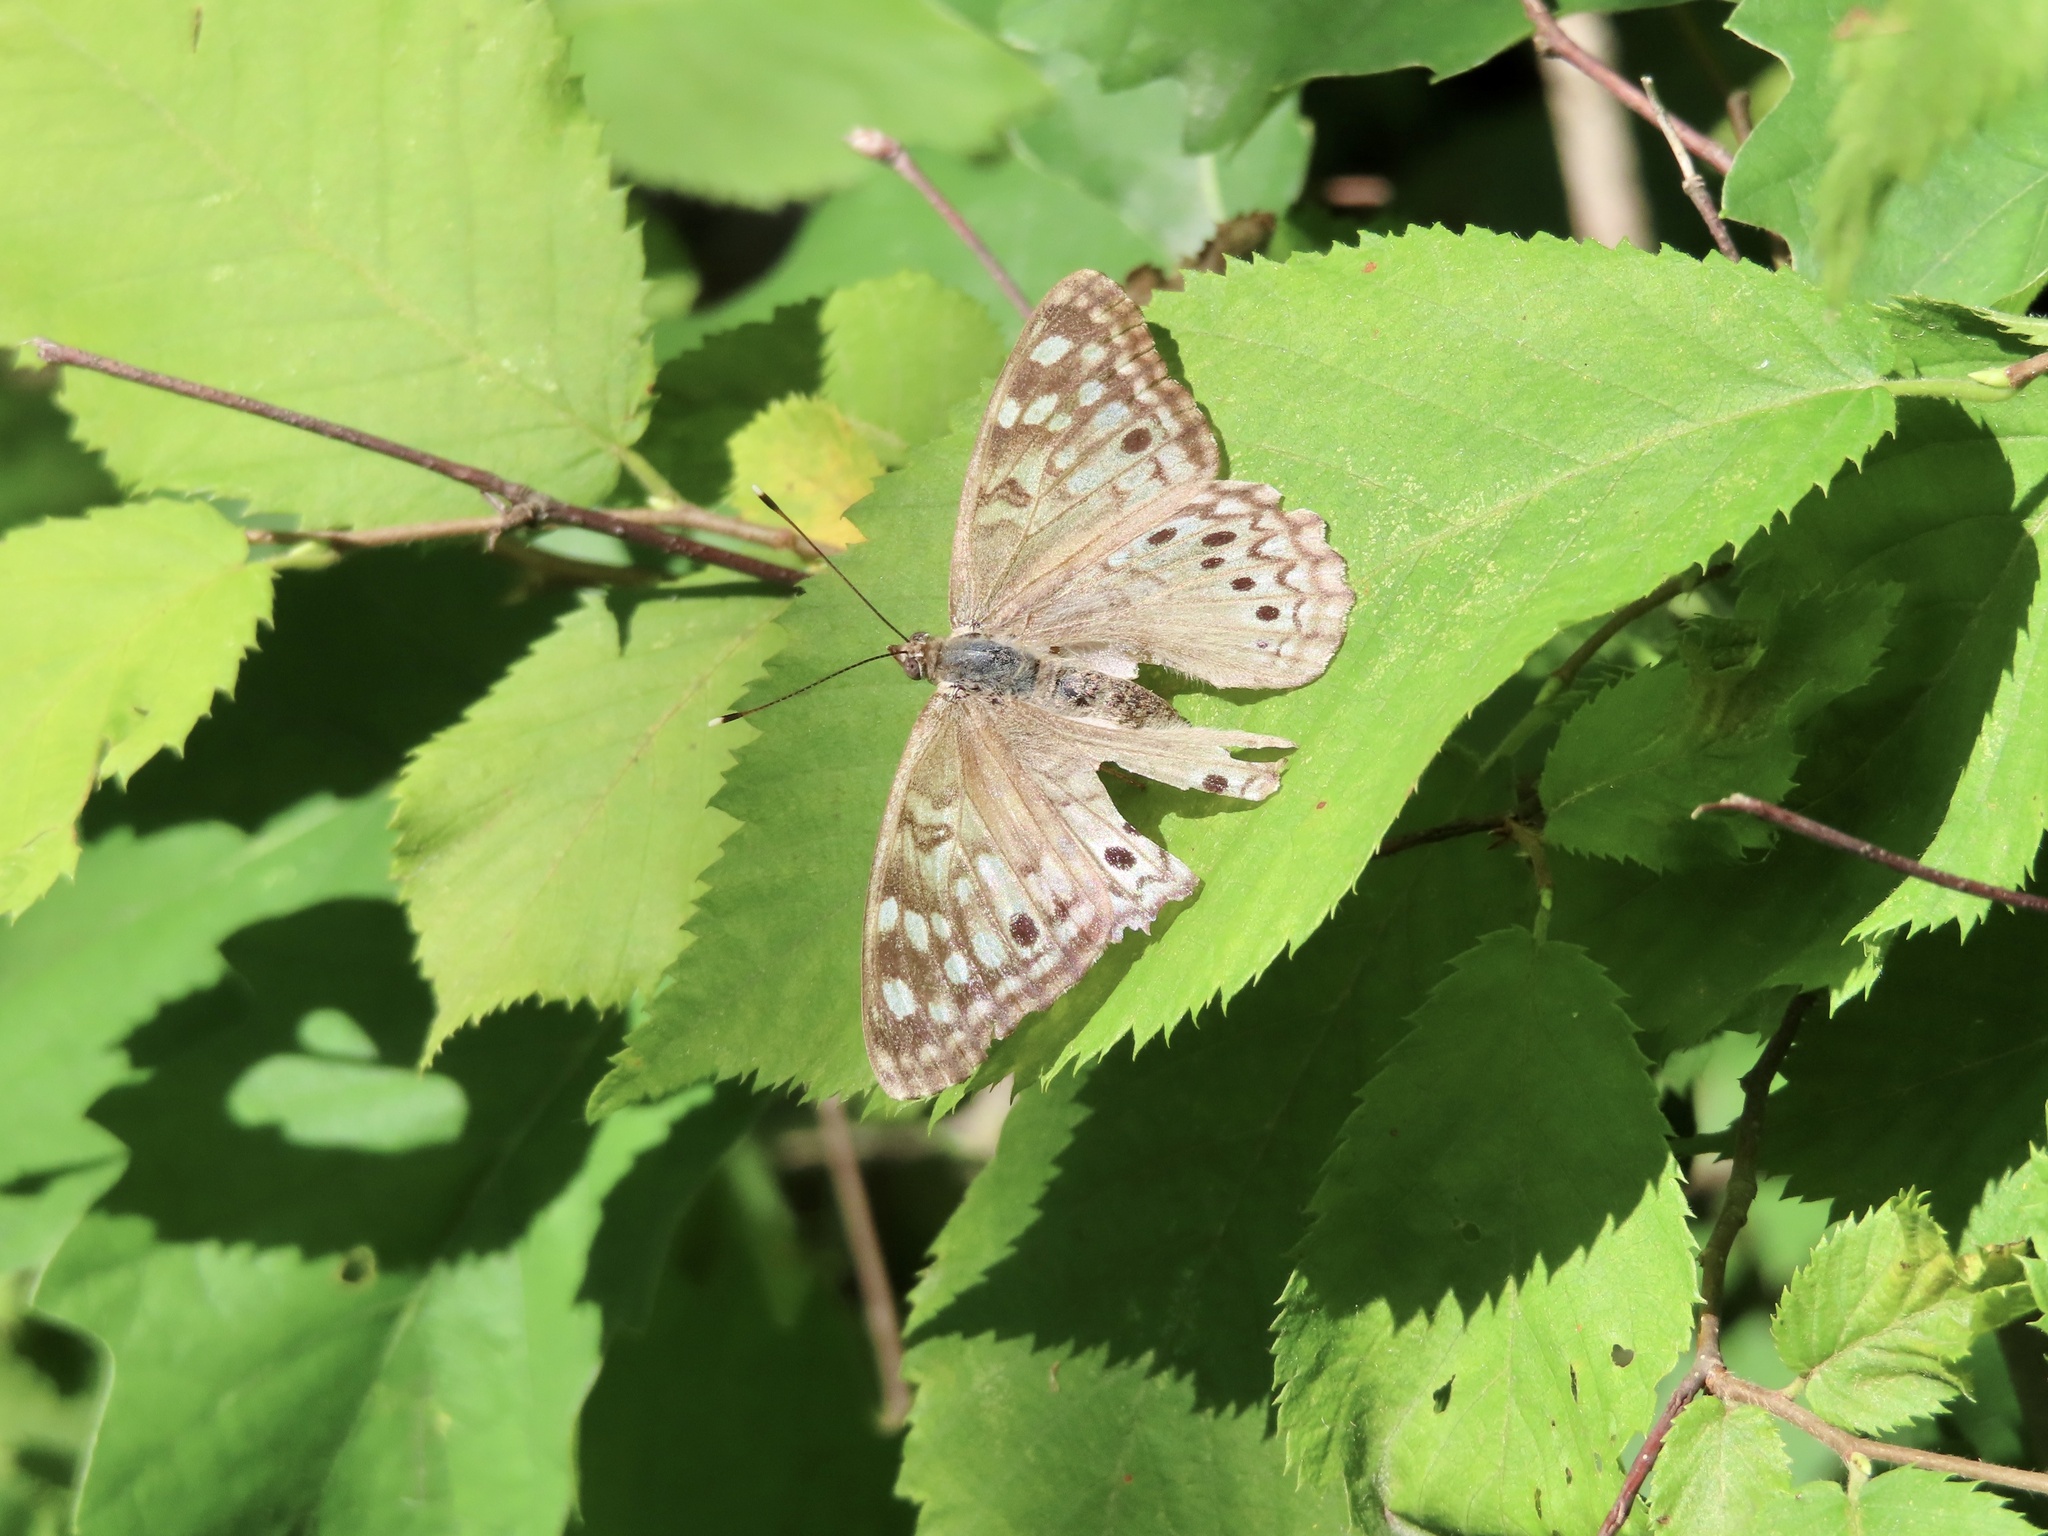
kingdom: Animalia
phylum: Arthropoda
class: Insecta
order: Lepidoptera
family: Nymphalidae
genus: Asterocampa
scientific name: Asterocampa celtis
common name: Hackberry emperor
